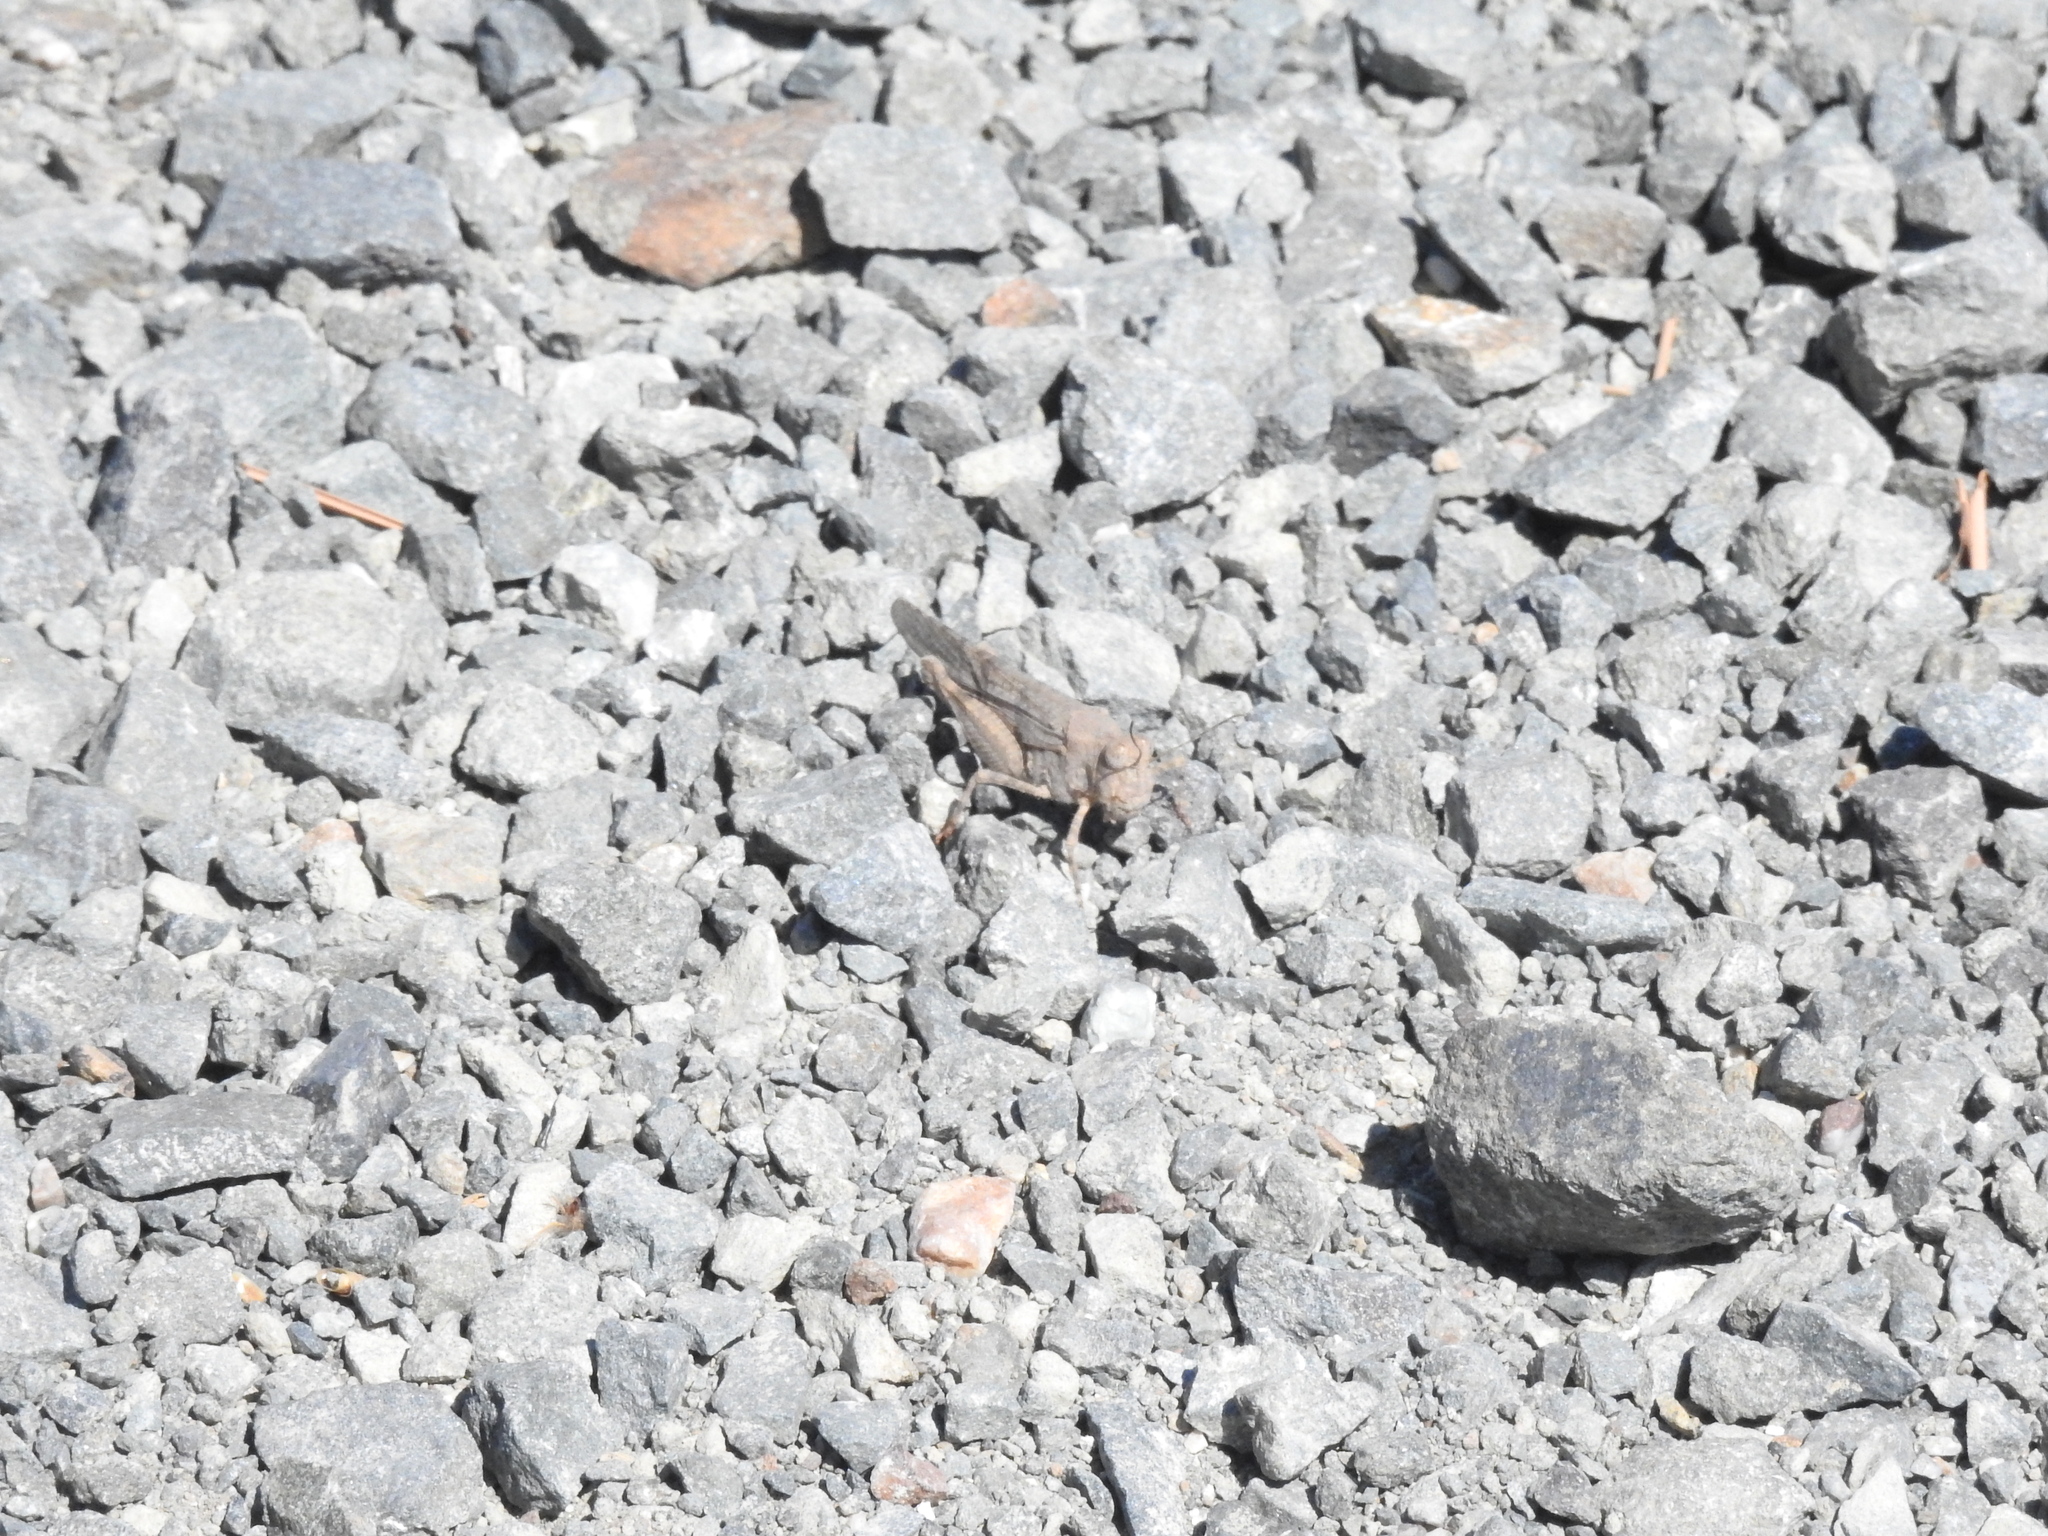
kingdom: Animalia
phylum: Arthropoda
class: Insecta
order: Orthoptera
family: Acrididae
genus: Trimerotropis
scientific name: Trimerotropis occidentalis
